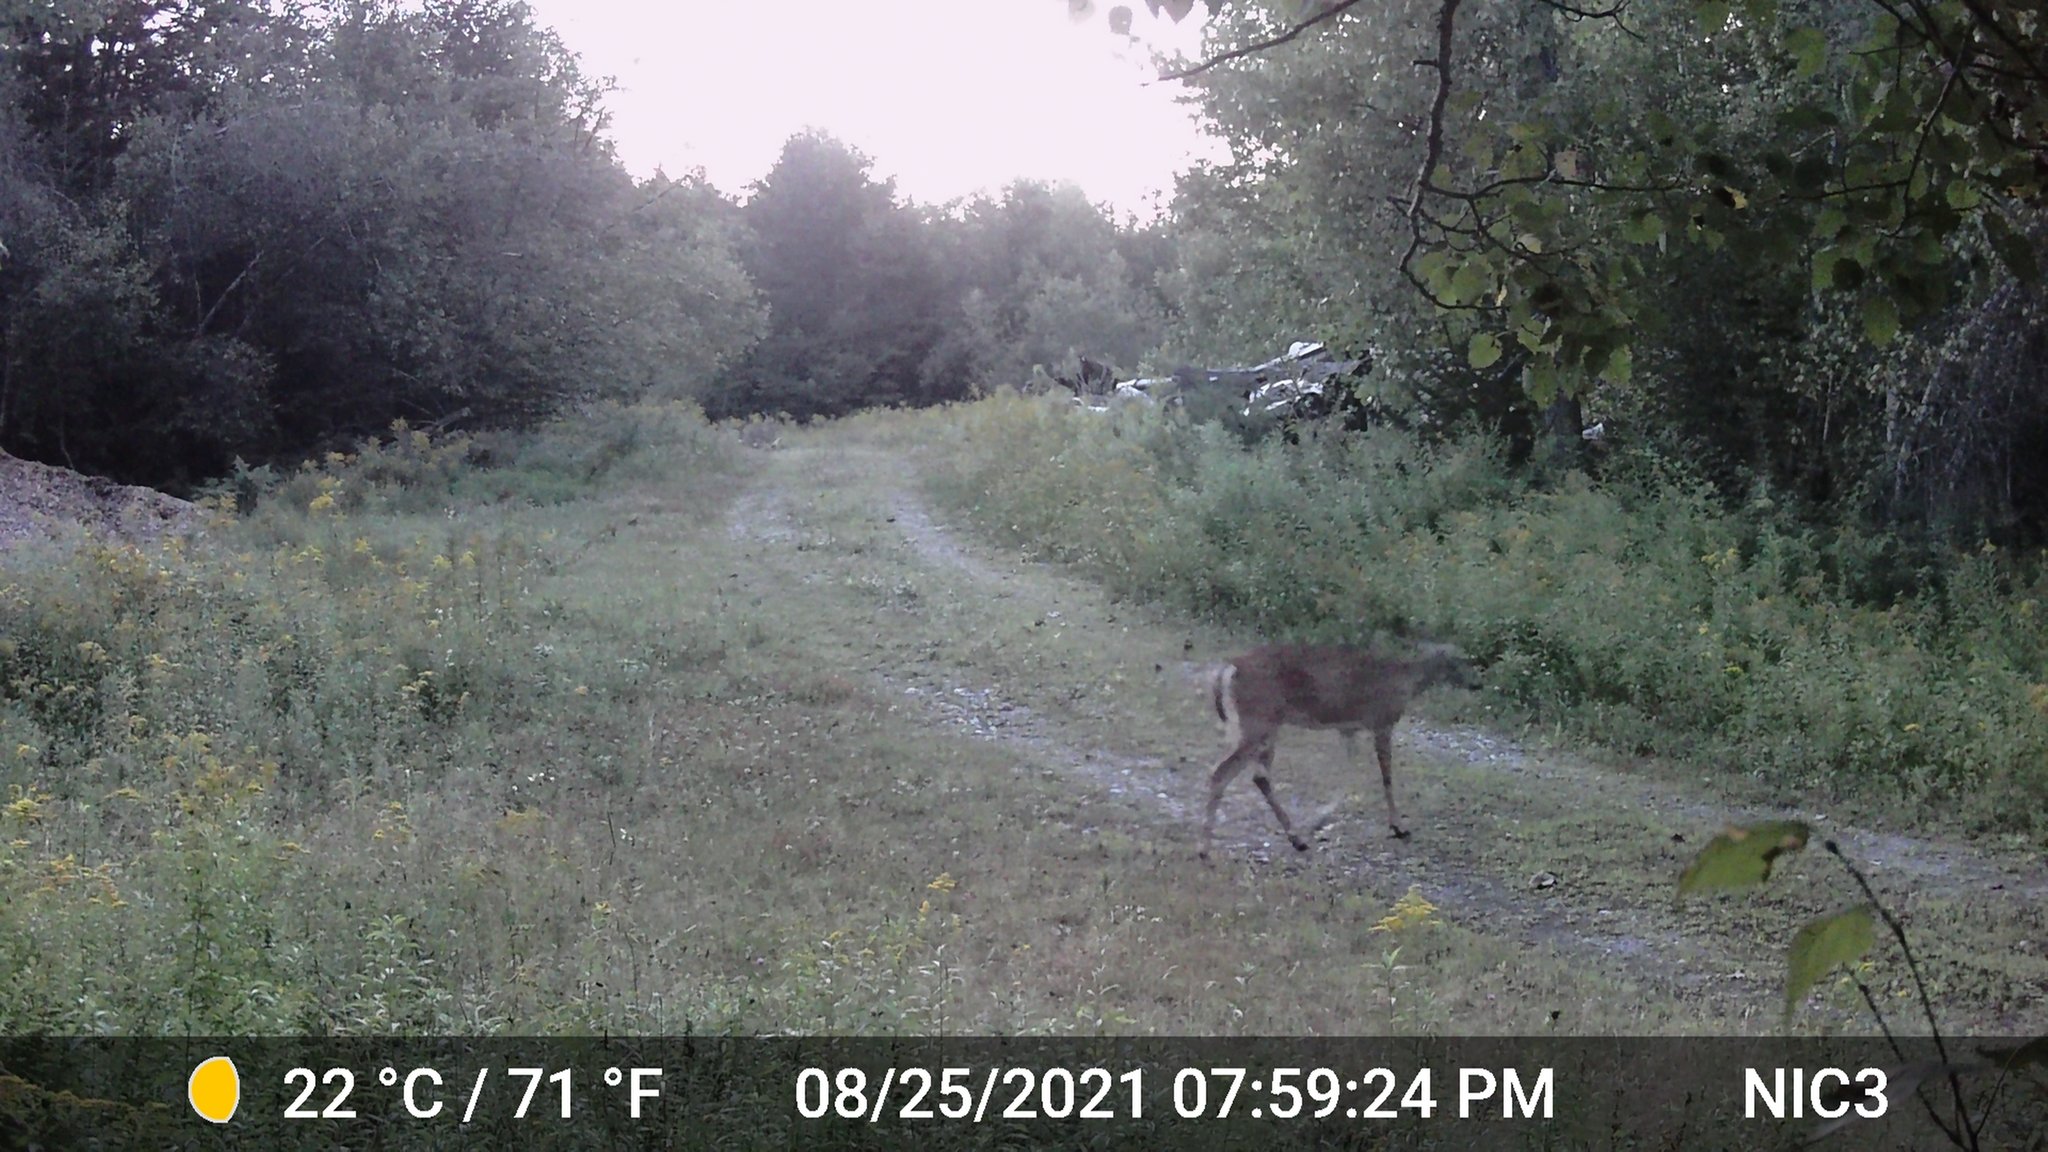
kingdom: Animalia
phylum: Chordata
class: Mammalia
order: Artiodactyla
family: Cervidae
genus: Odocoileus
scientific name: Odocoileus virginianus
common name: White-tailed deer
